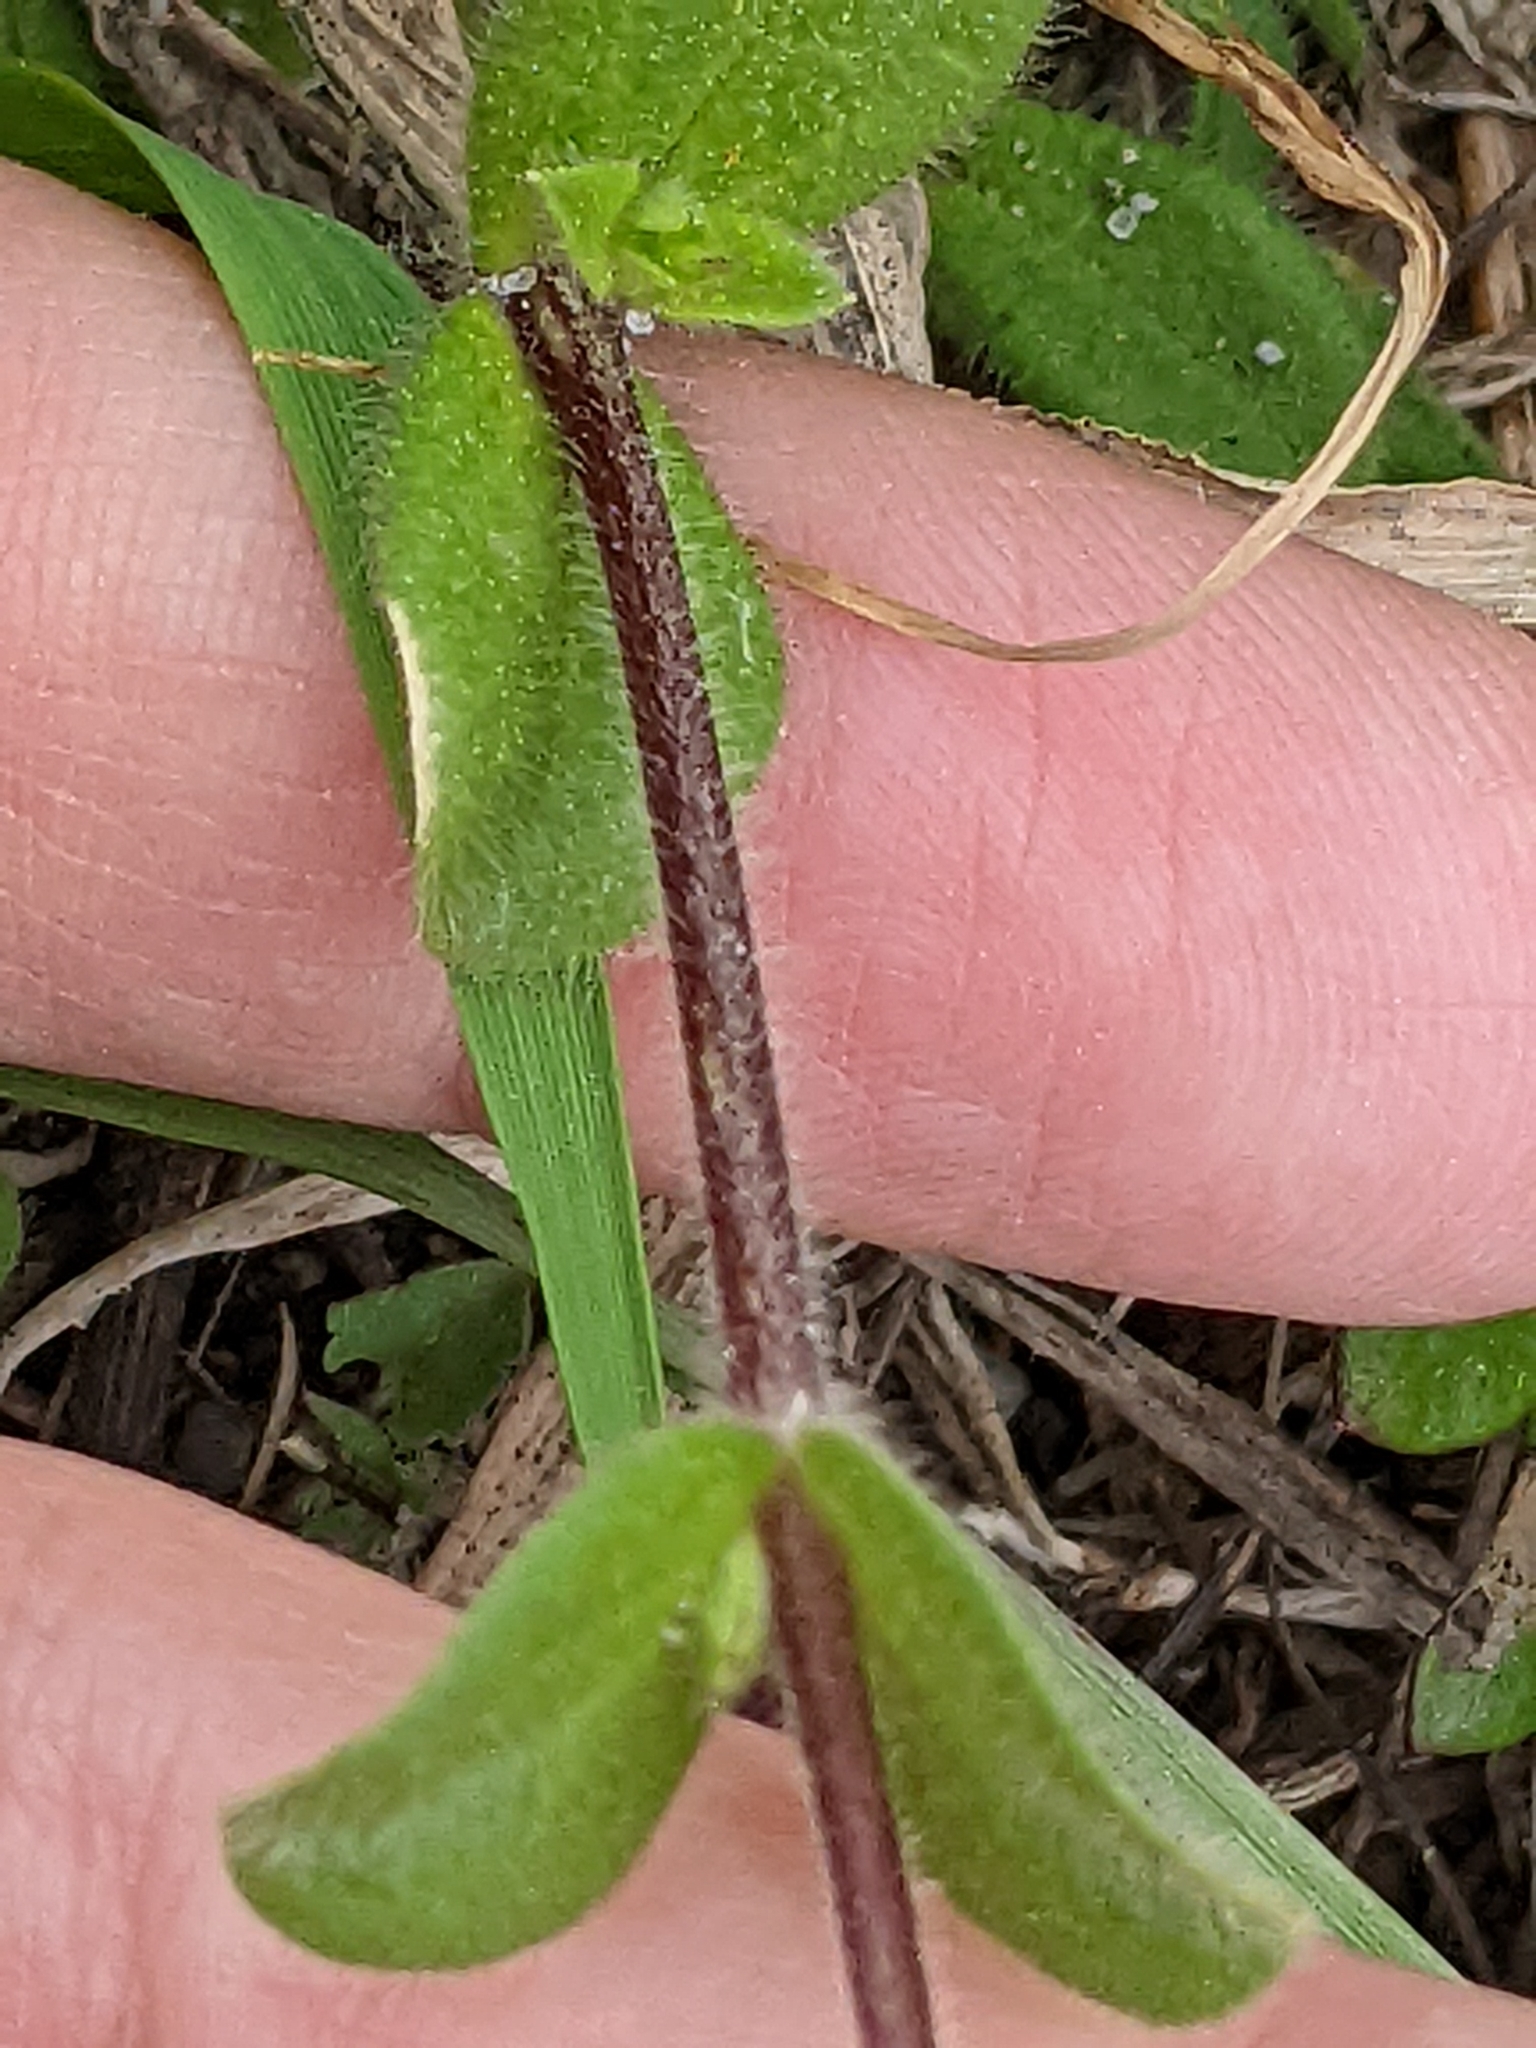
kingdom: Plantae
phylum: Tracheophyta
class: Magnoliopsida
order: Caryophyllales
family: Caryophyllaceae
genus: Cerastium
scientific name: Cerastium glomeratum
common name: Sticky chickweed
